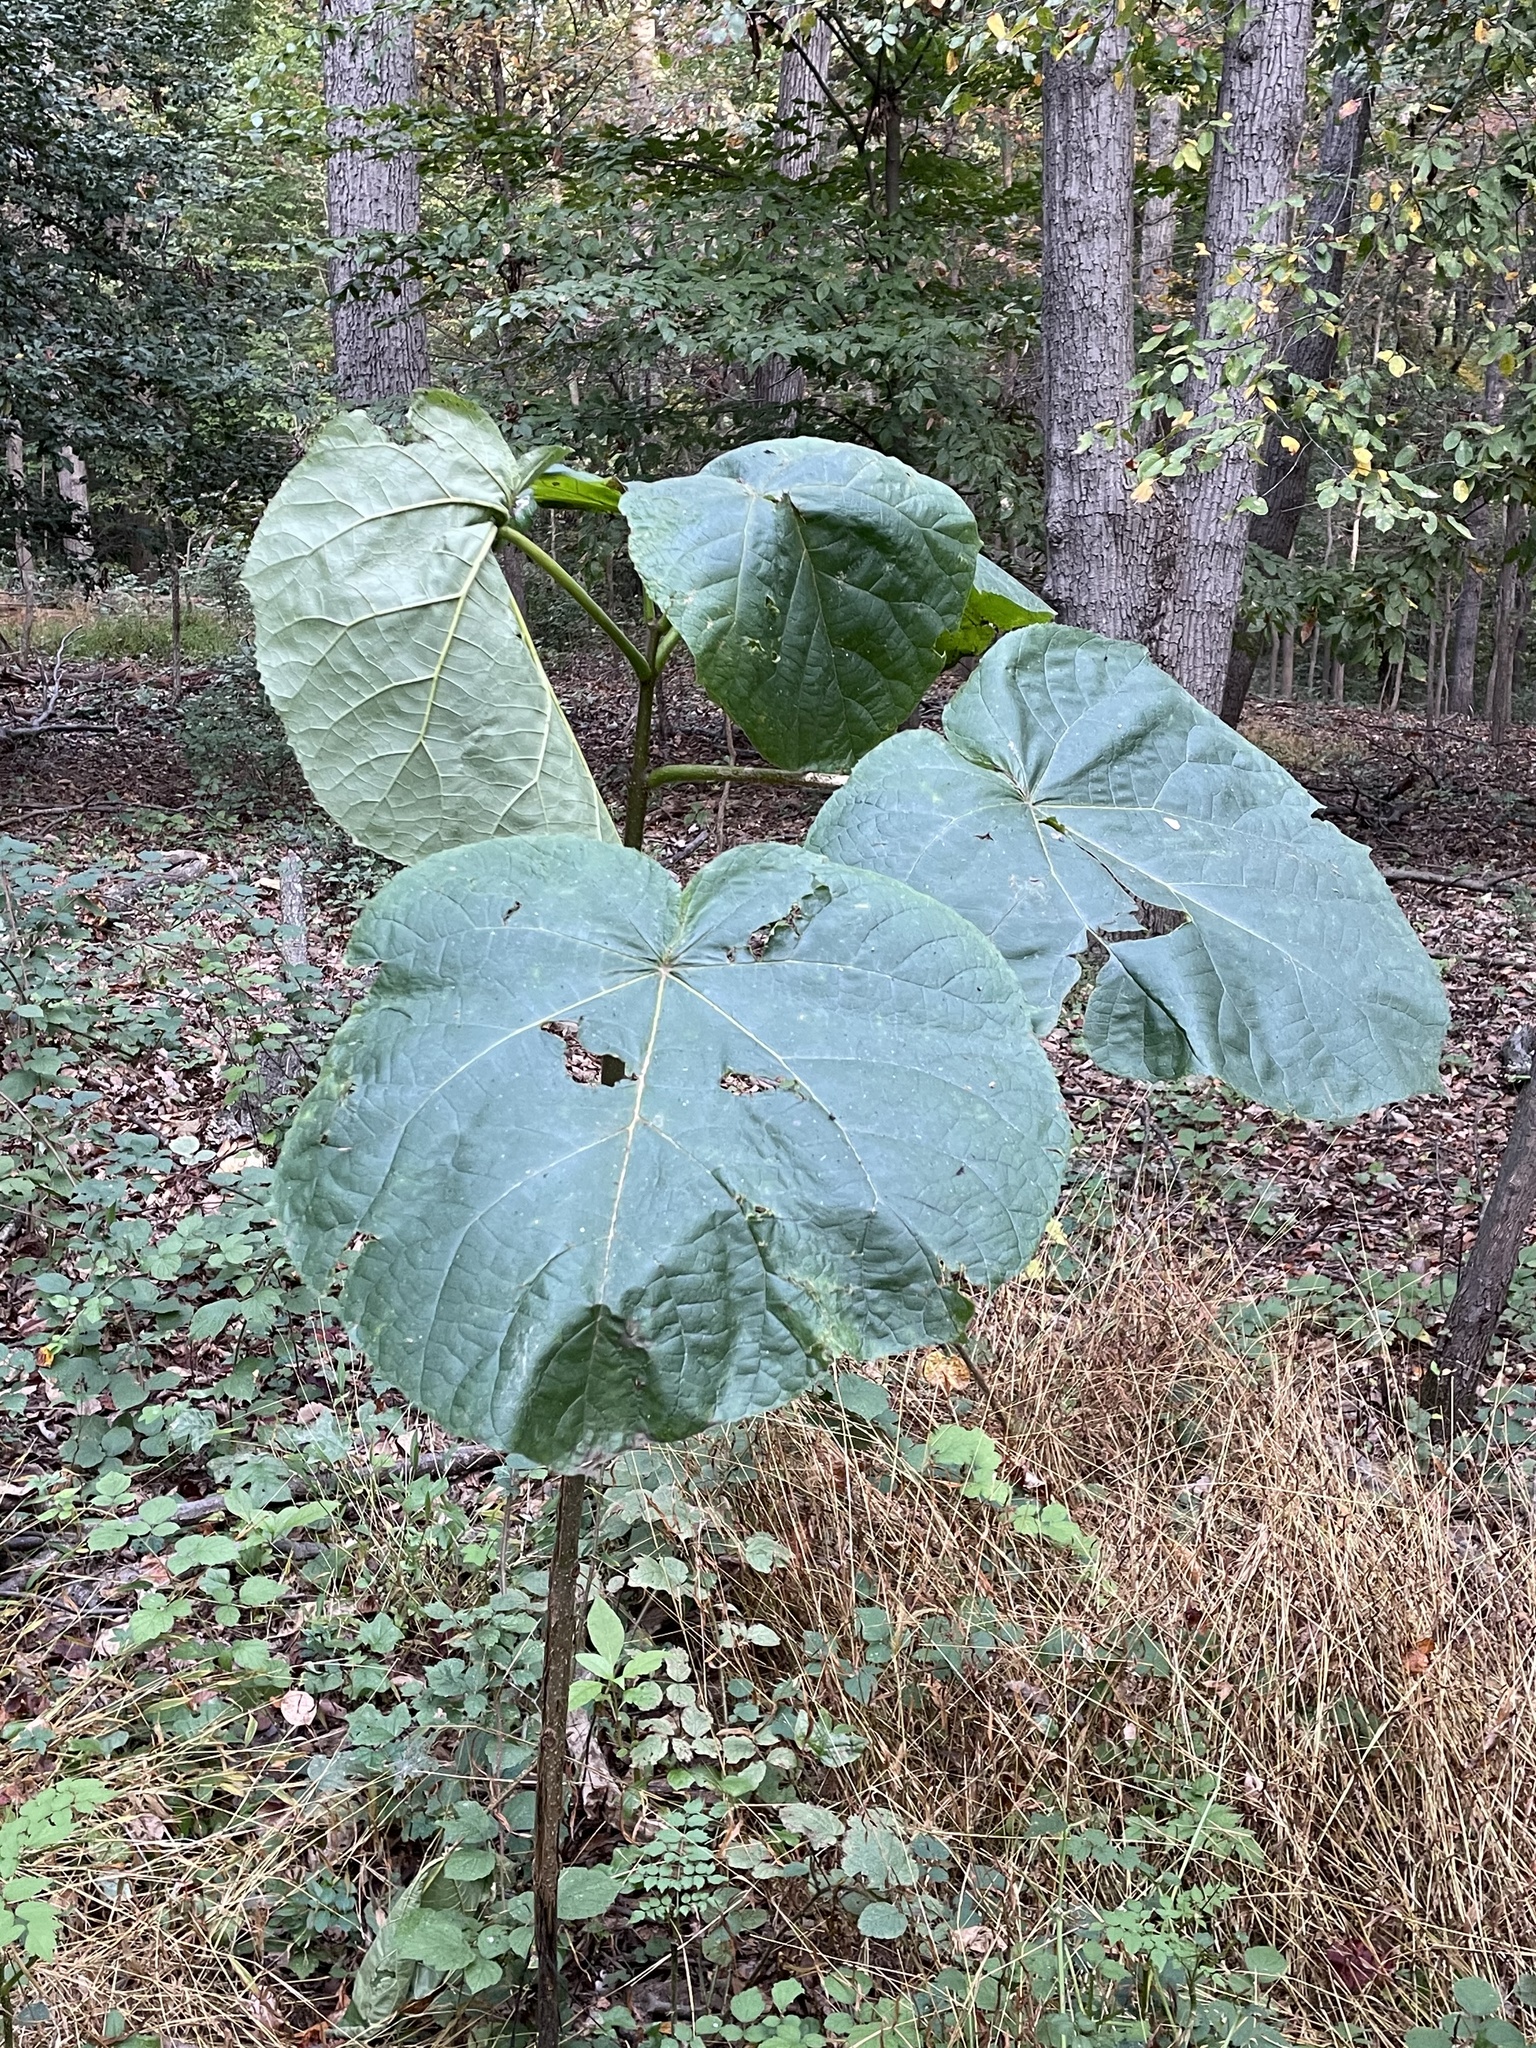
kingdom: Plantae
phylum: Tracheophyta
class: Magnoliopsida
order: Lamiales
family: Paulowniaceae
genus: Paulownia
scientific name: Paulownia tomentosa
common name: Foxglove-tree
